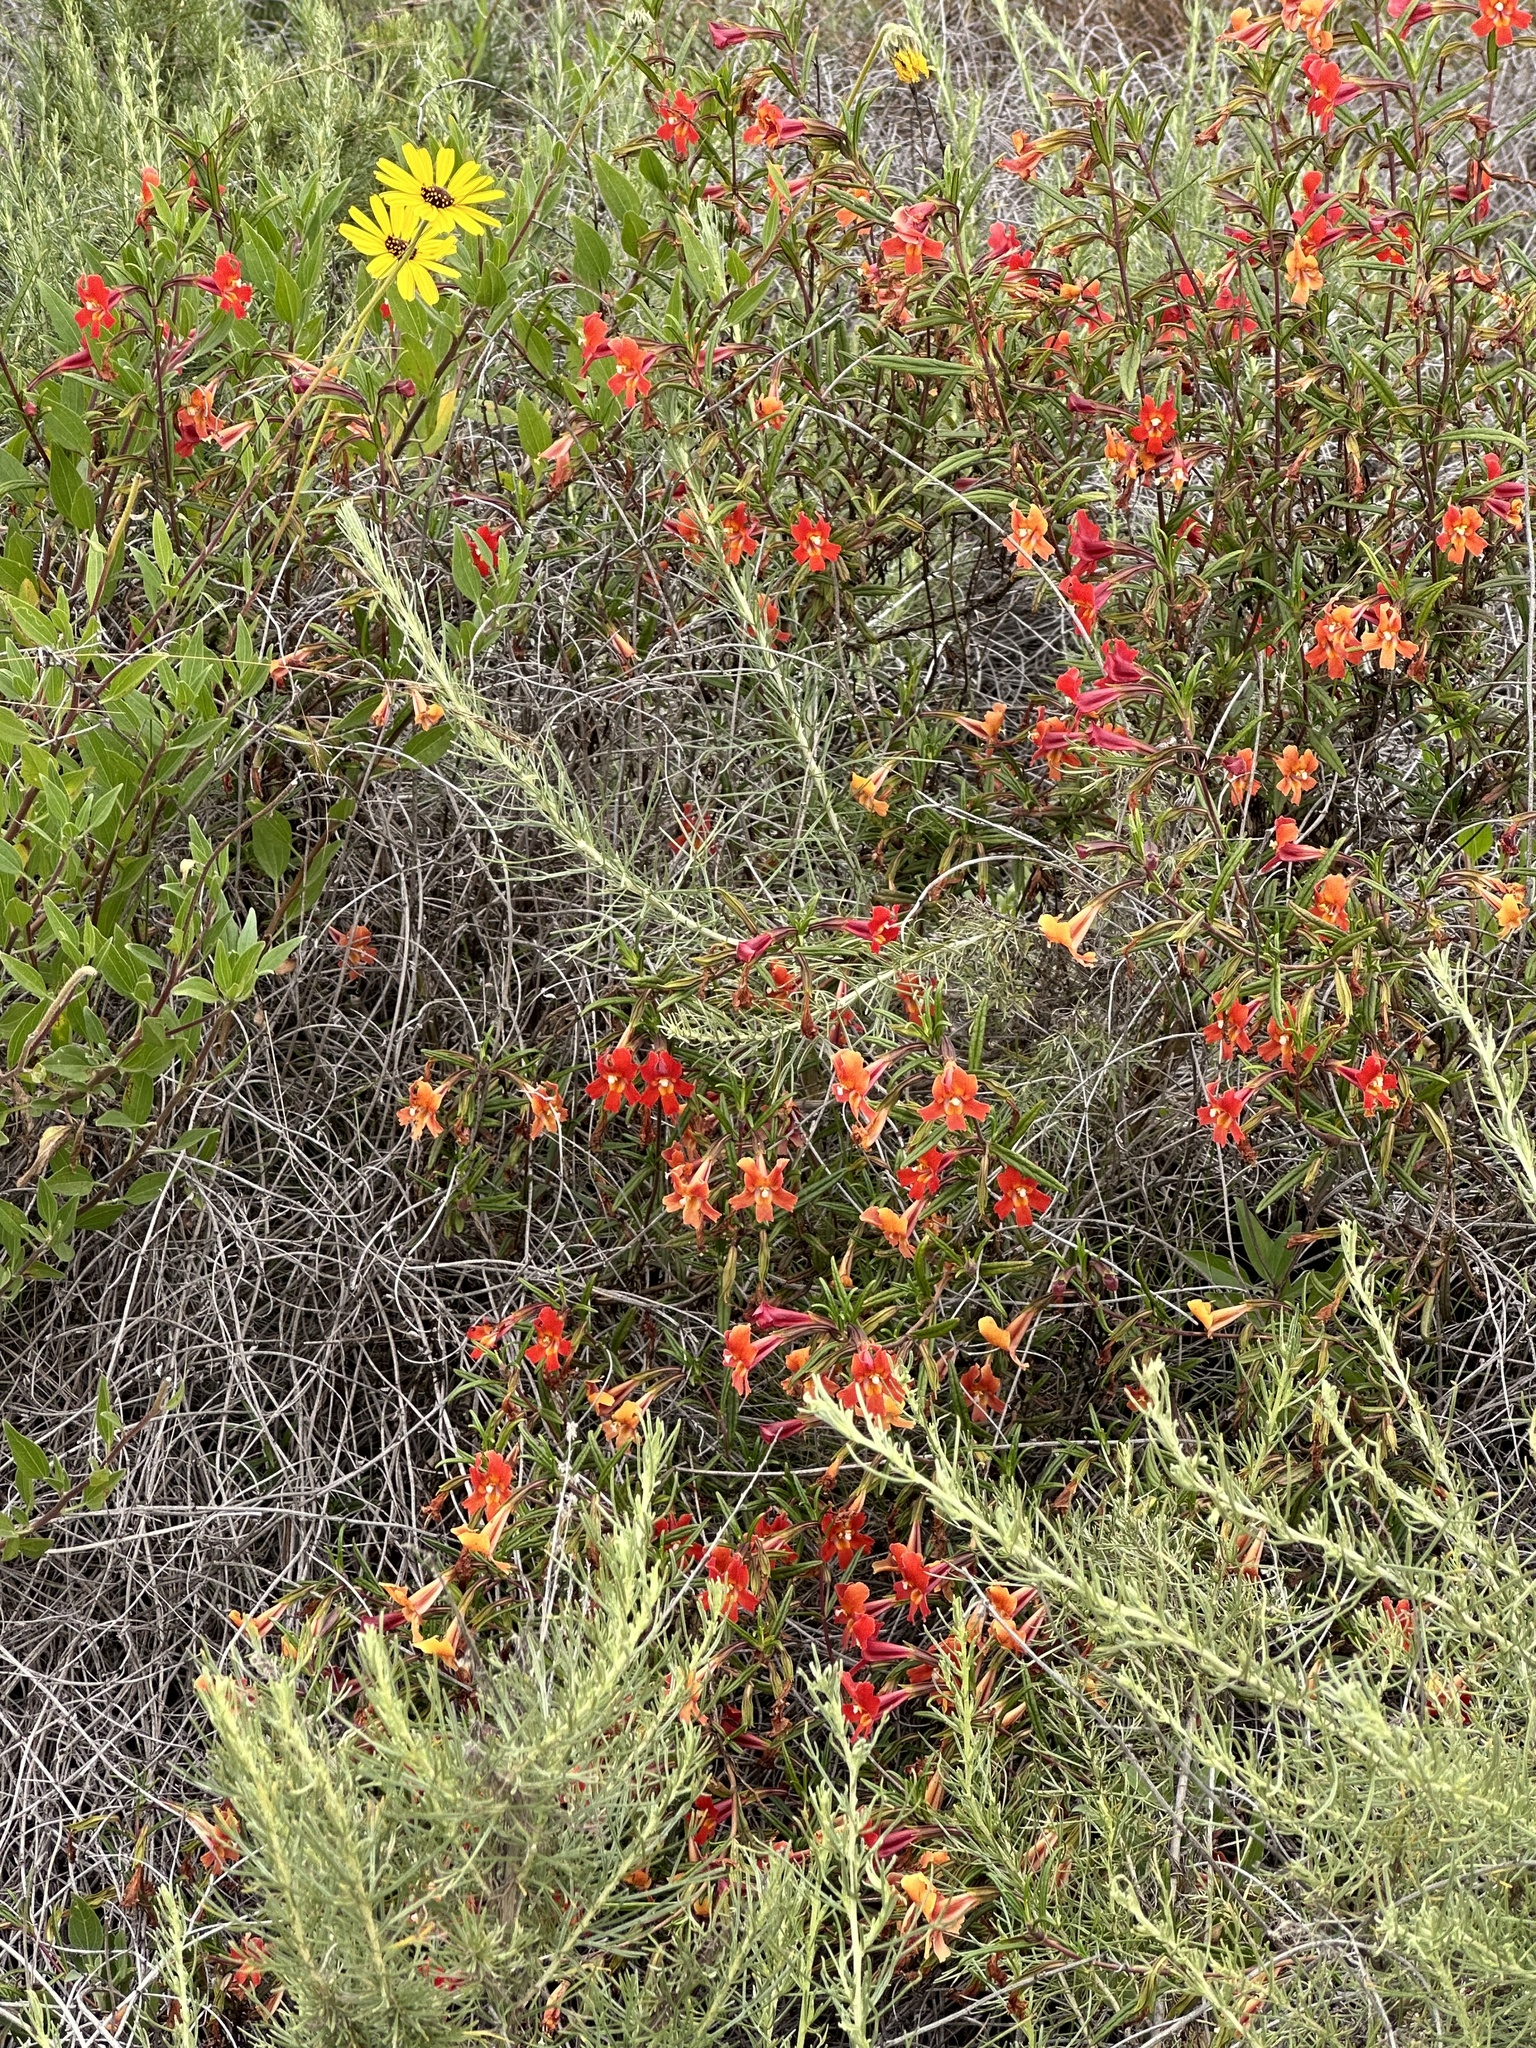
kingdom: Plantae
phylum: Tracheophyta
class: Magnoliopsida
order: Lamiales
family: Phrymaceae
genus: Diplacus
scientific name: Diplacus puniceus
